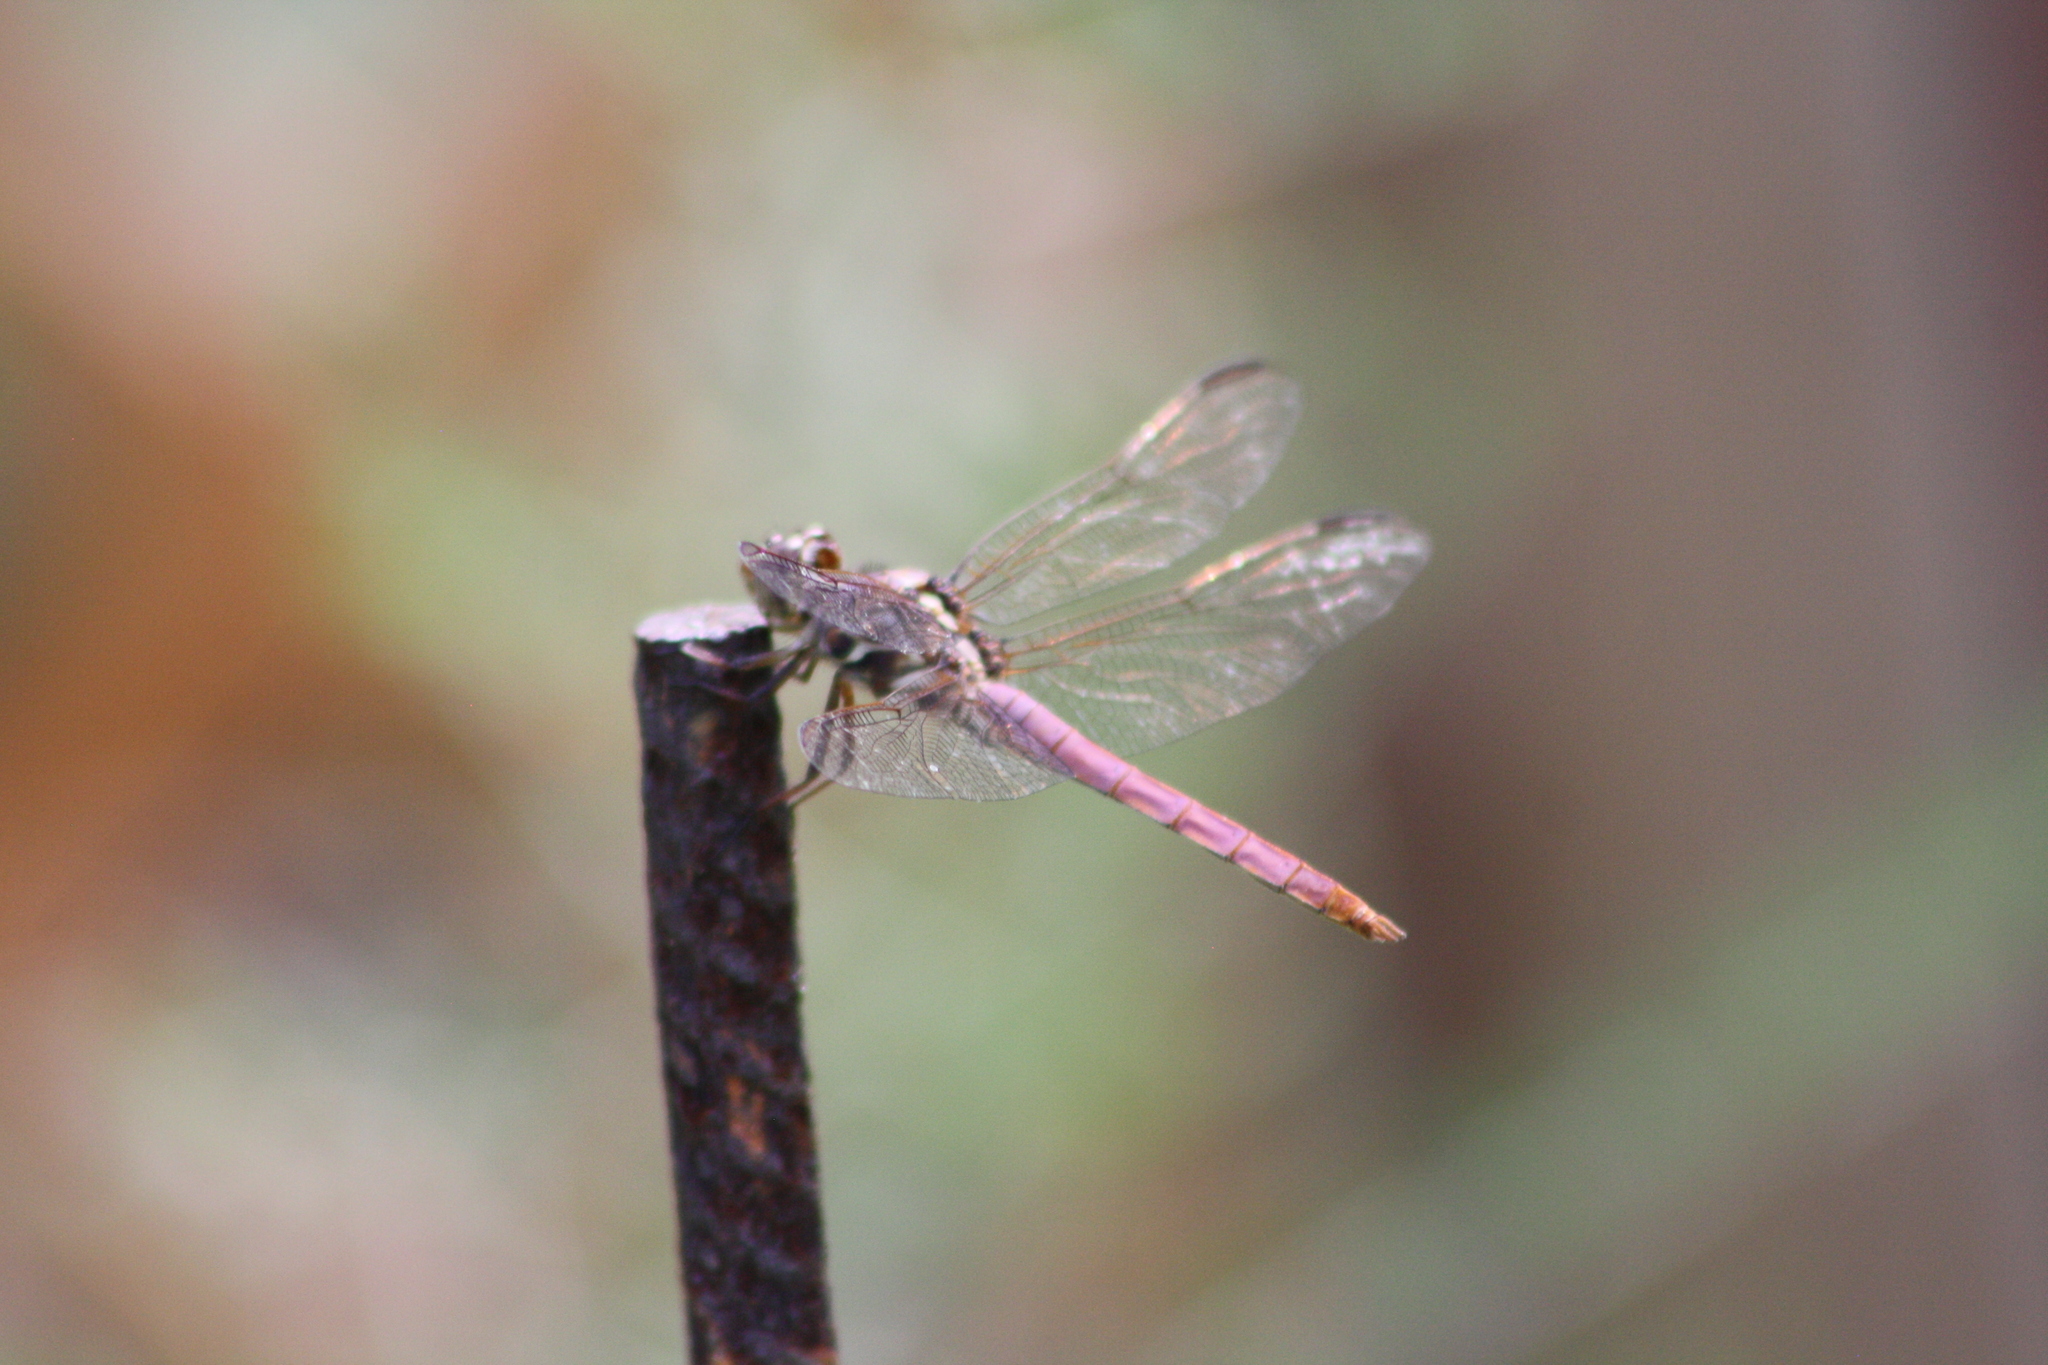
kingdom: Animalia
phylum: Arthropoda
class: Insecta
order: Odonata
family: Libellulidae
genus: Orthemis
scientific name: Orthemis ferruginea
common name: Roseate skimmer
